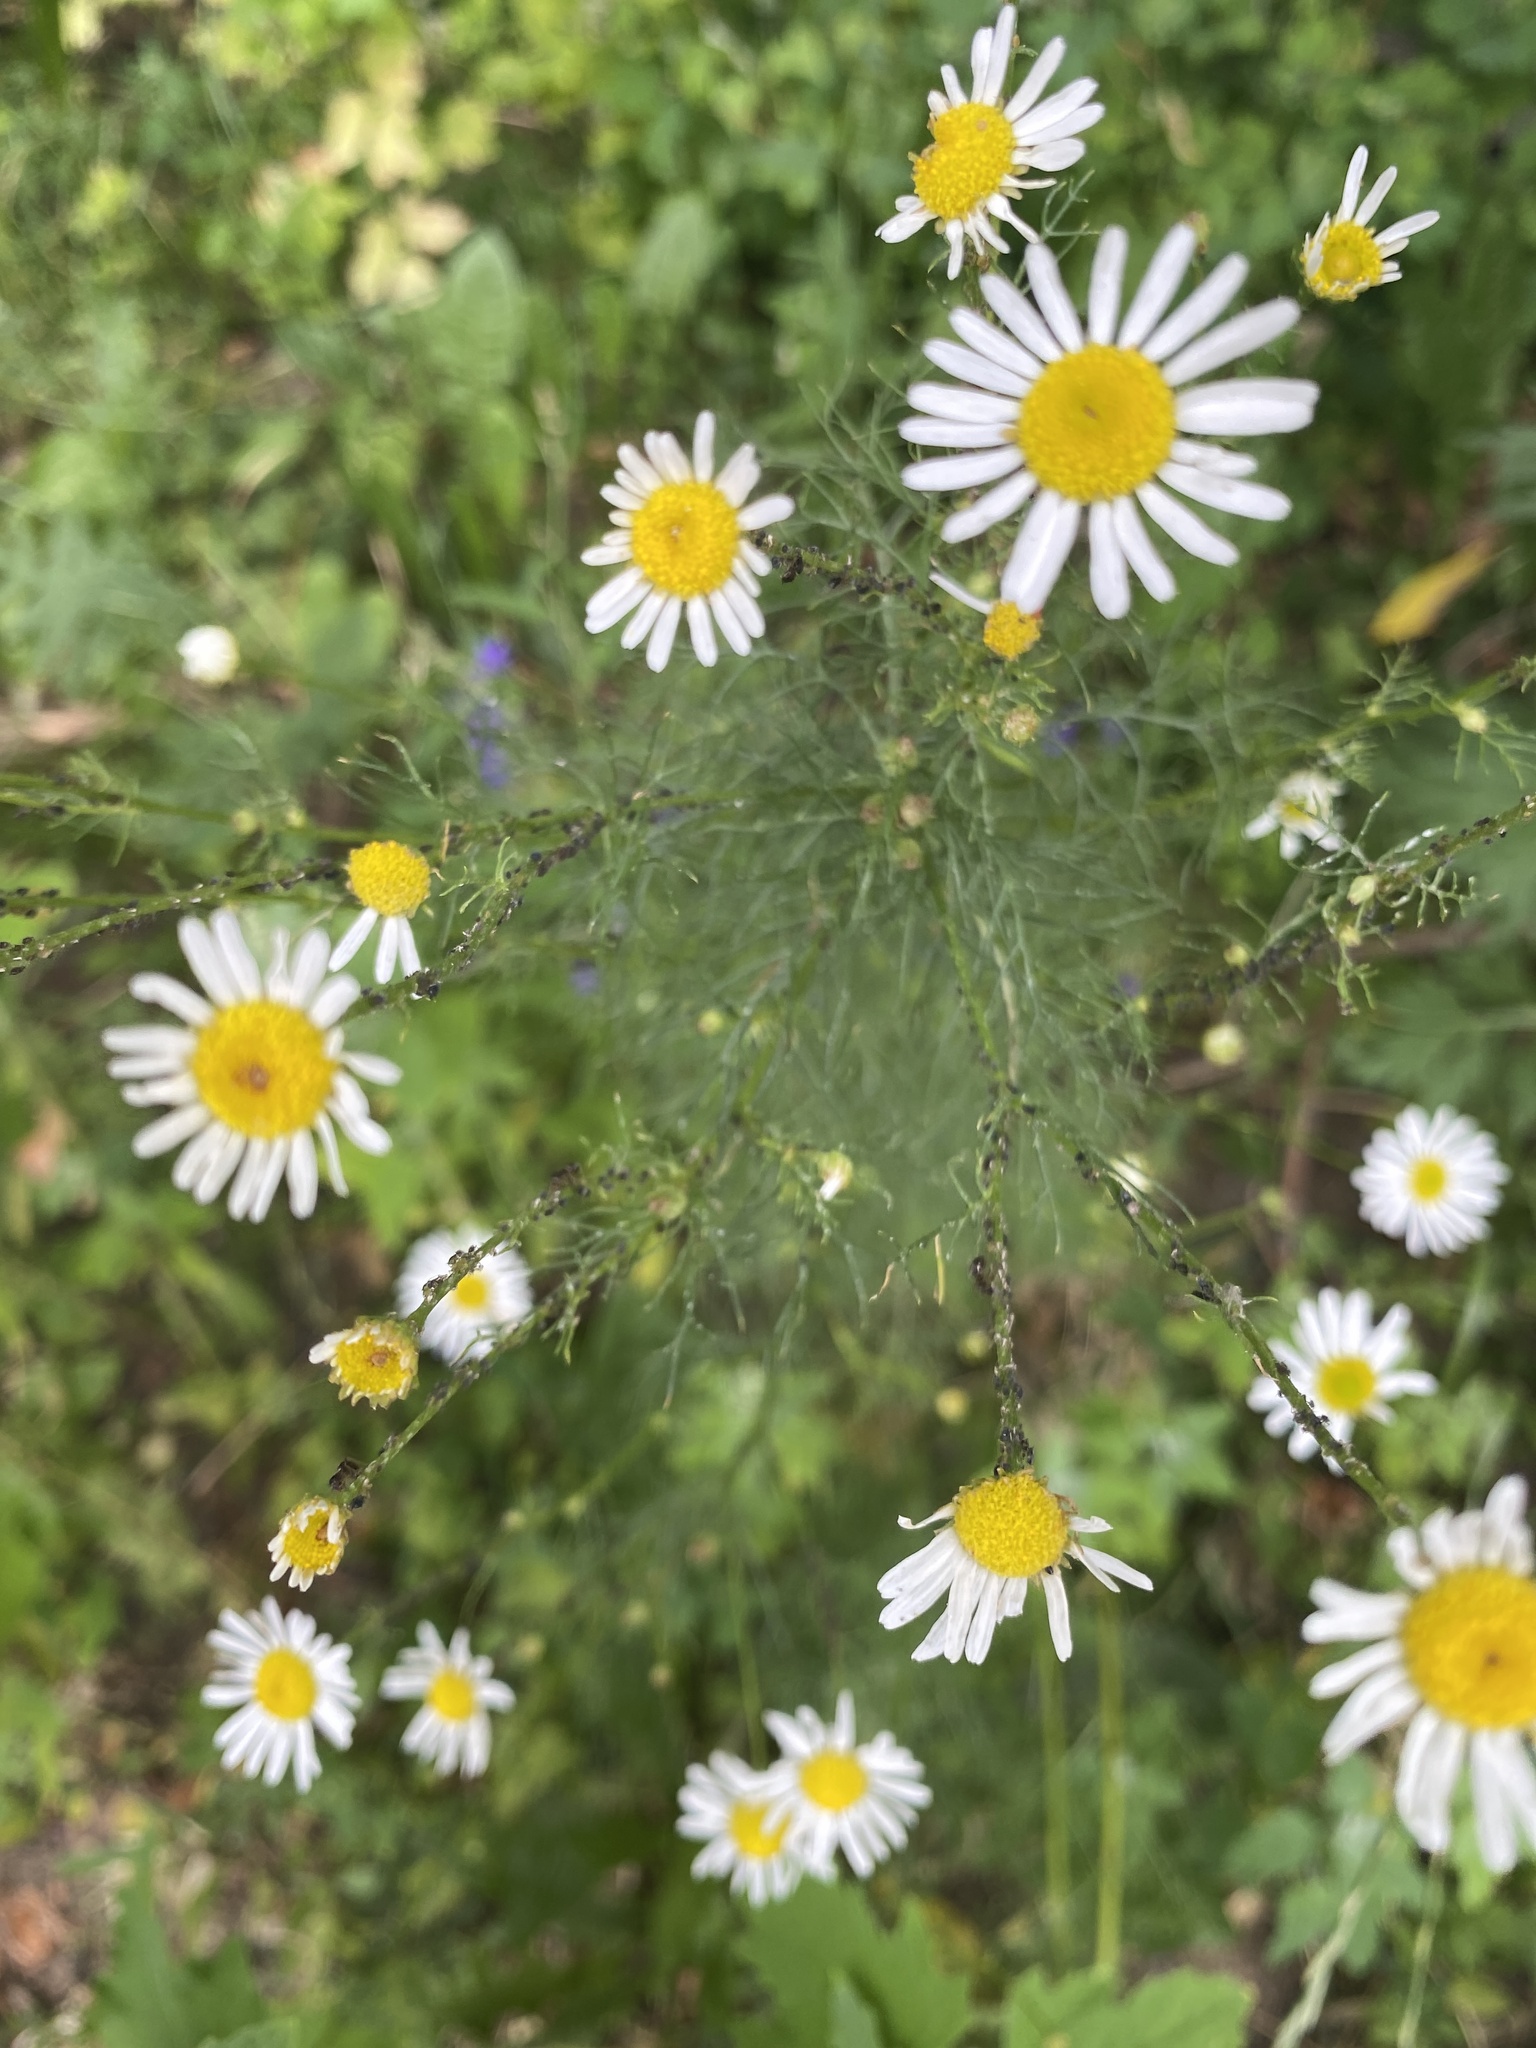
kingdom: Plantae
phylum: Tracheophyta
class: Magnoliopsida
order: Asterales
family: Asteraceae
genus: Tripleurospermum
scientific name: Tripleurospermum inodorum
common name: Scentless mayweed
